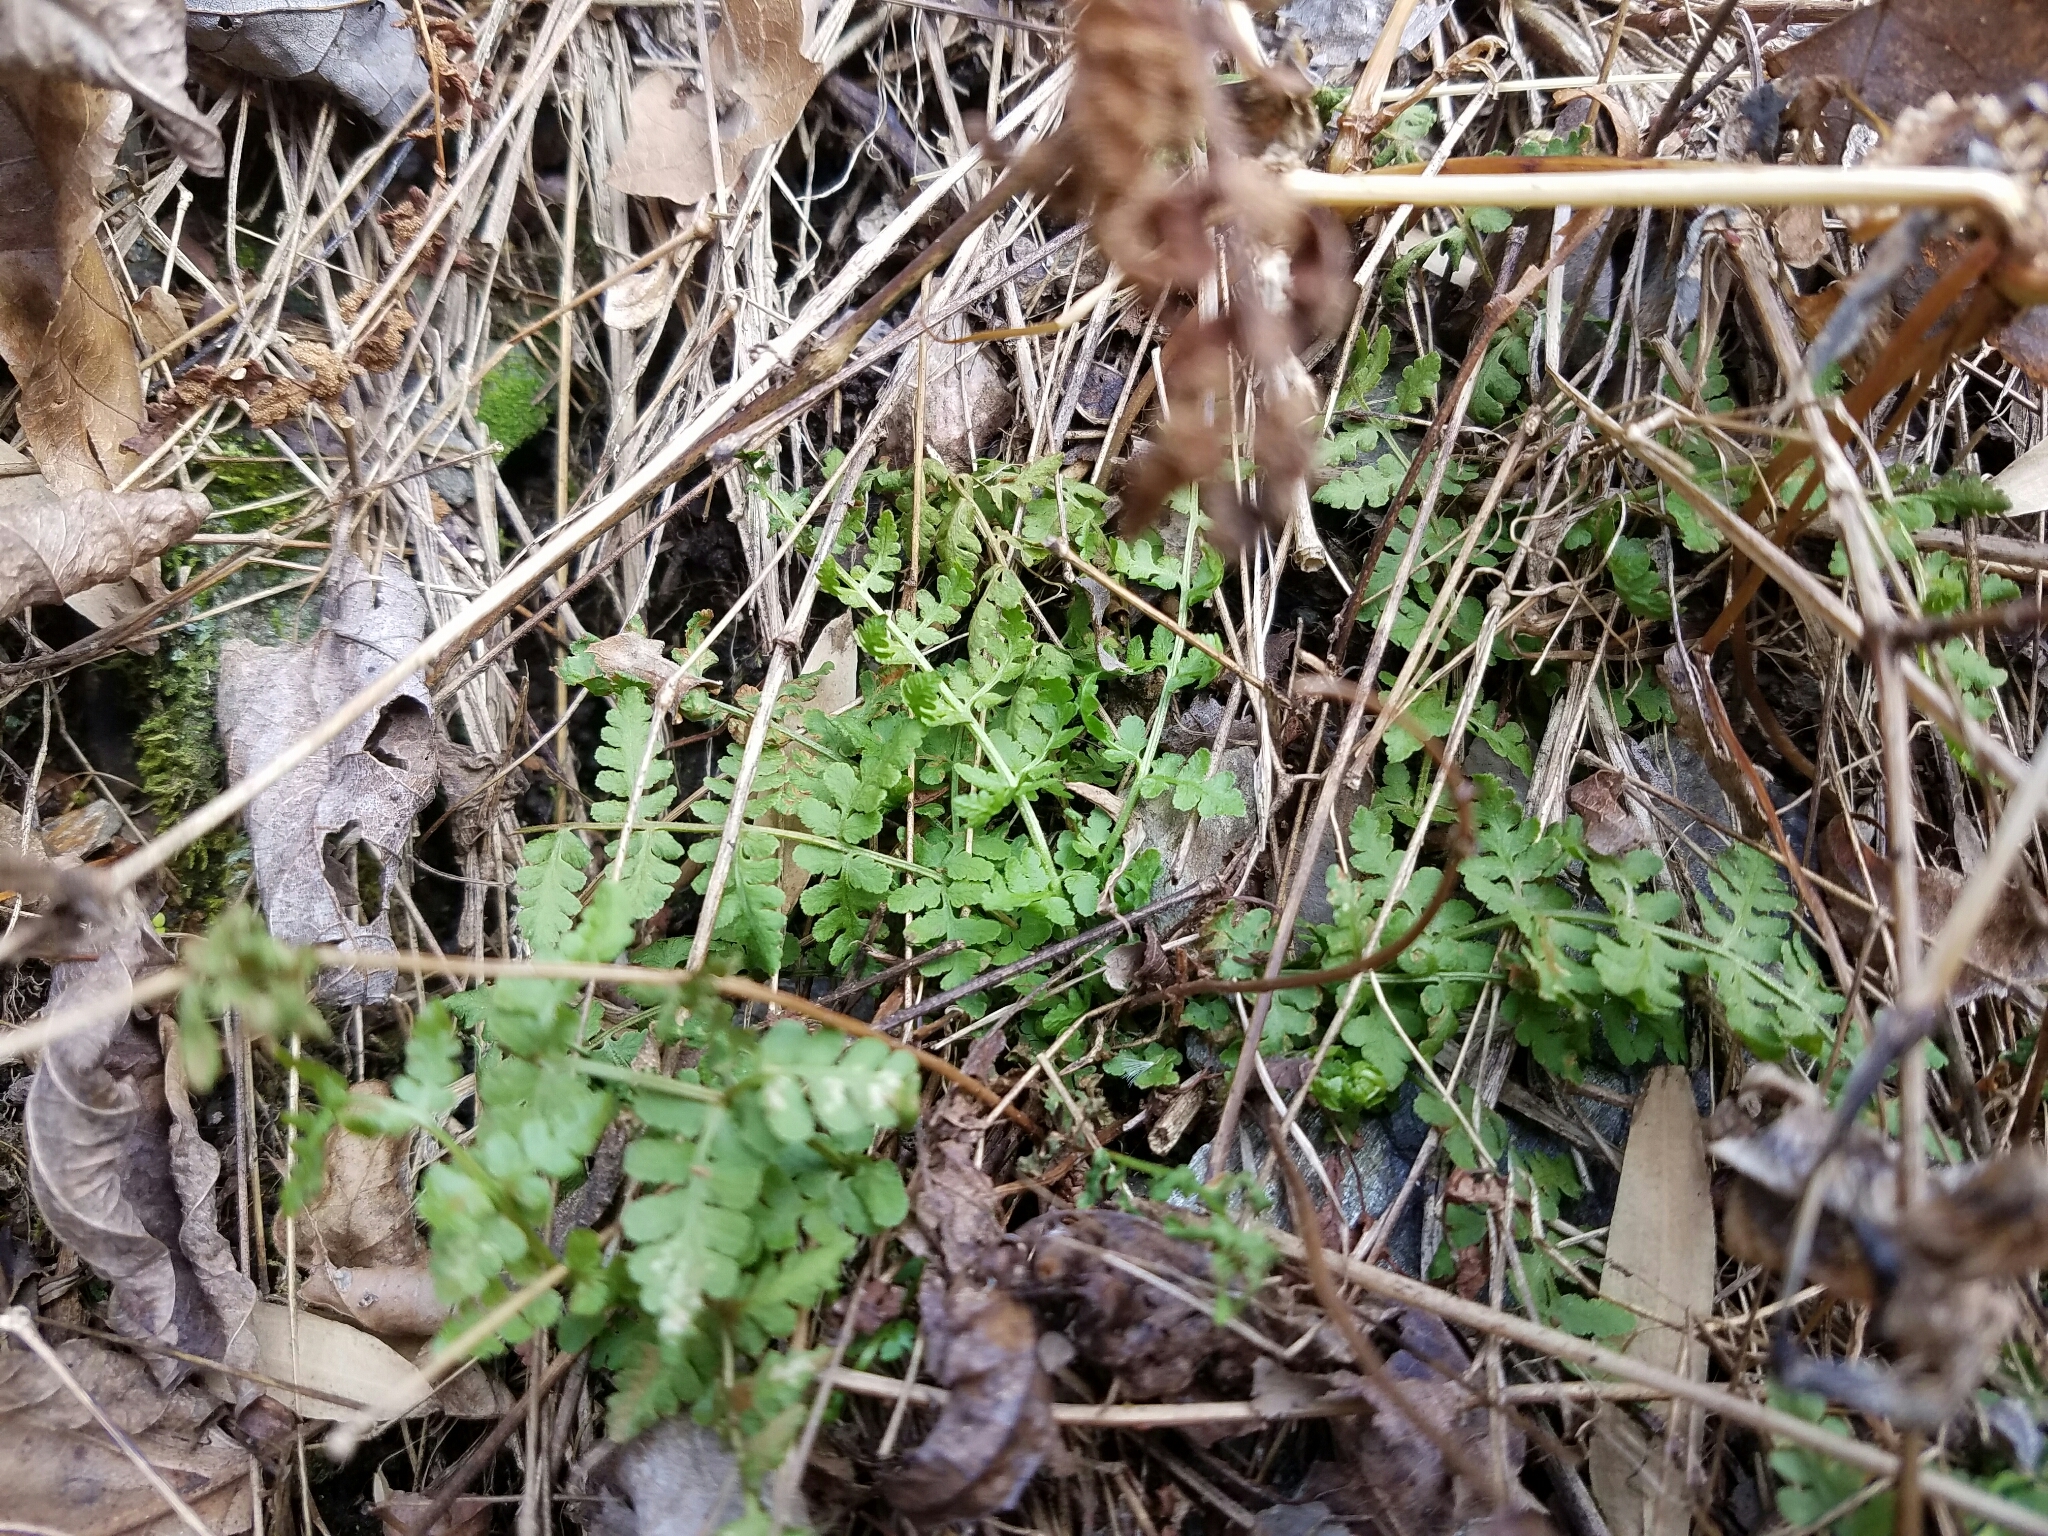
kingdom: Plantae
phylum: Tracheophyta
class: Polypodiopsida
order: Polypodiales
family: Woodsiaceae
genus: Physematium
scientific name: Physematium obtusum
